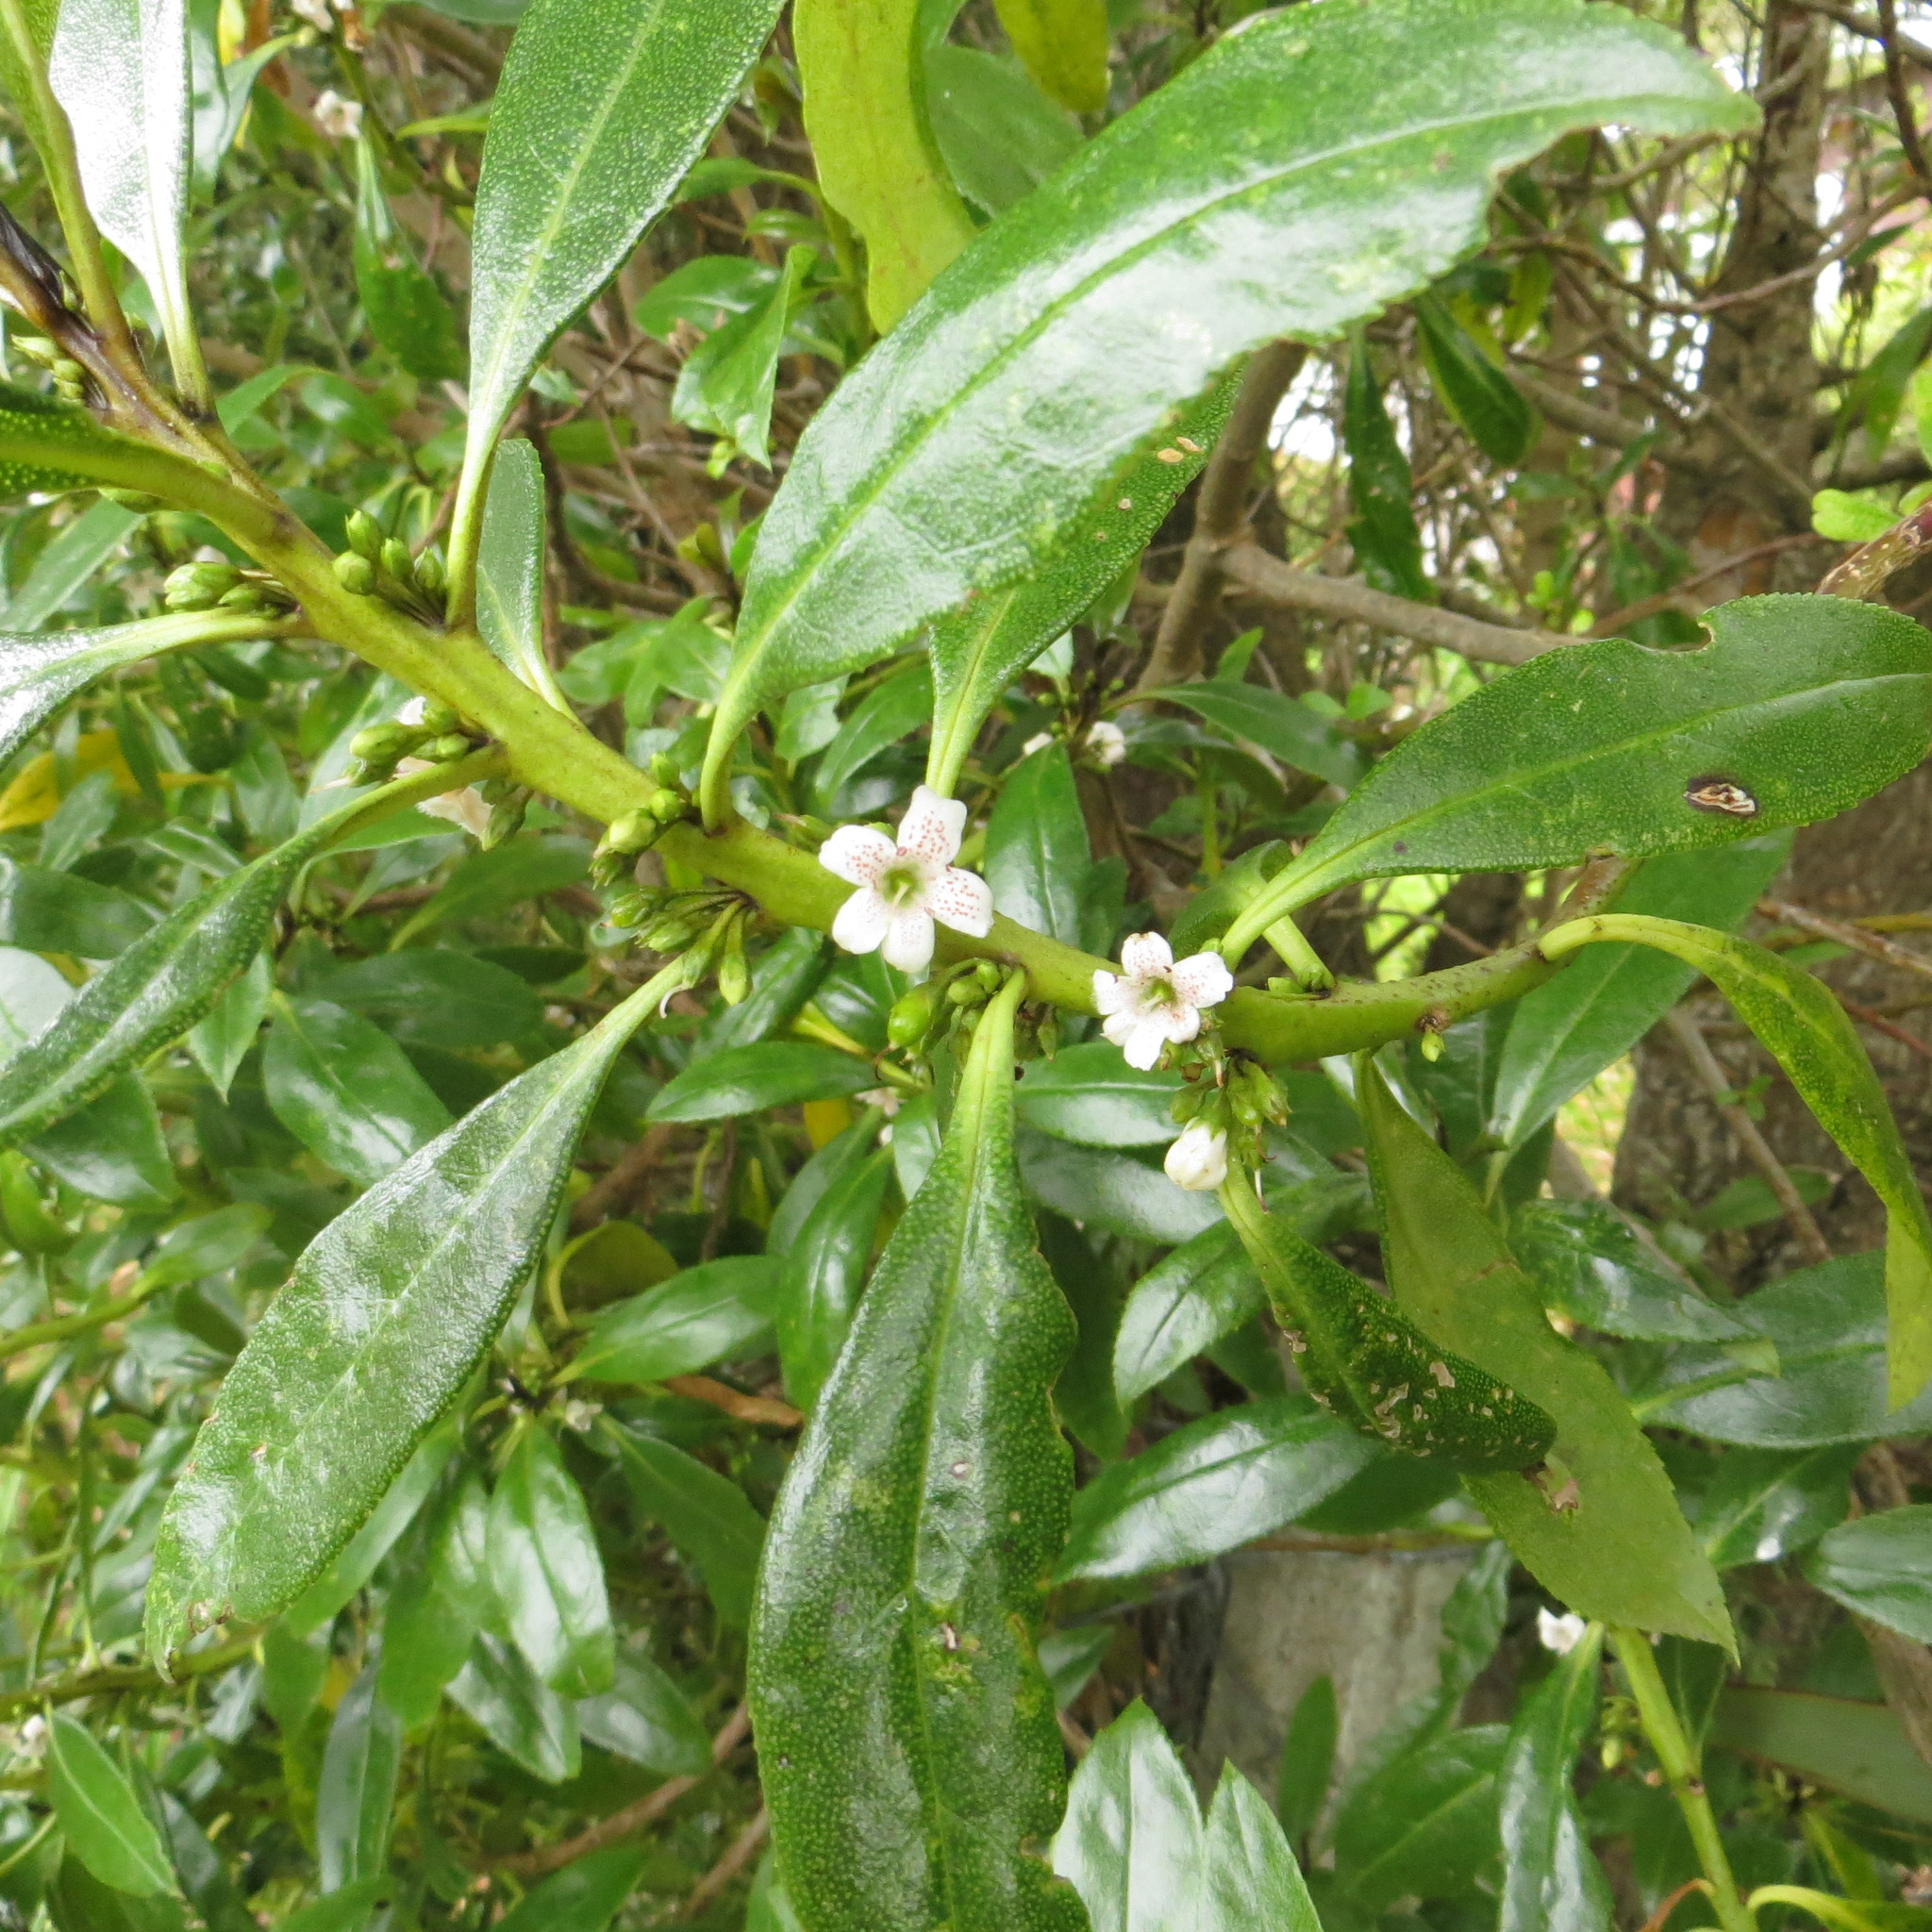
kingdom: Plantae
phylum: Tracheophyta
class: Magnoliopsida
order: Lamiales
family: Scrophulariaceae
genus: Myoporum
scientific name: Myoporum laetum
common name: Ngaio tree
